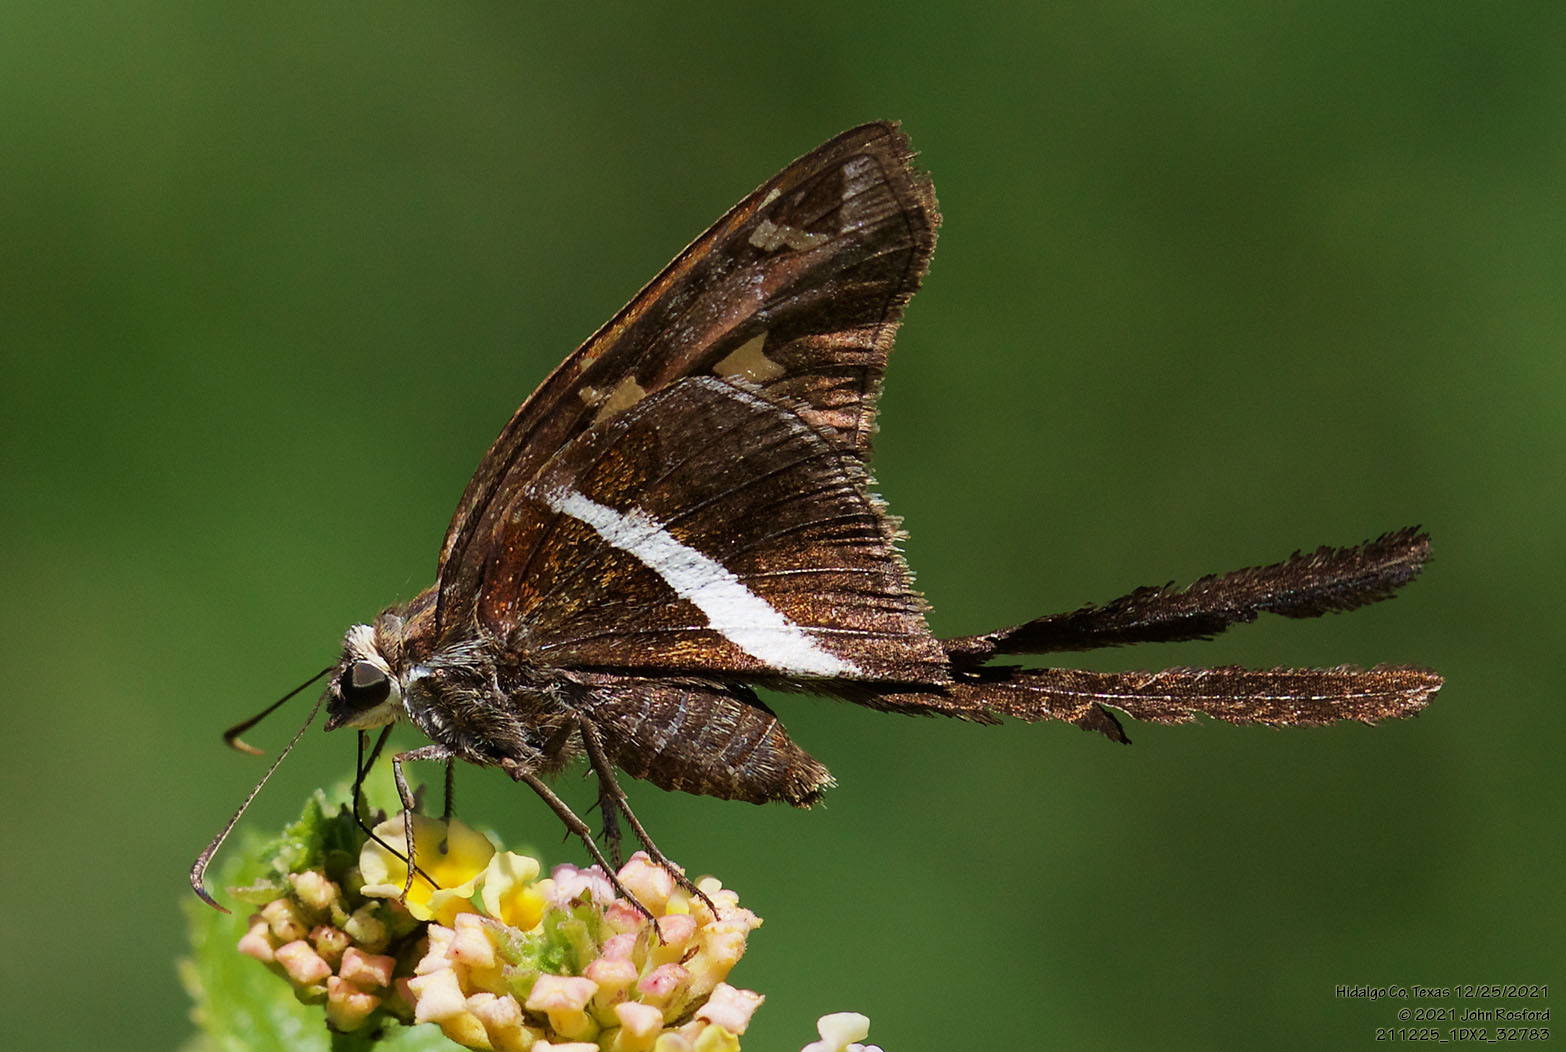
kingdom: Animalia
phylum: Arthropoda
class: Insecta
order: Lepidoptera
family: Hesperiidae
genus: Chioides
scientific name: Chioides catillus
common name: Silverbanded skipper
